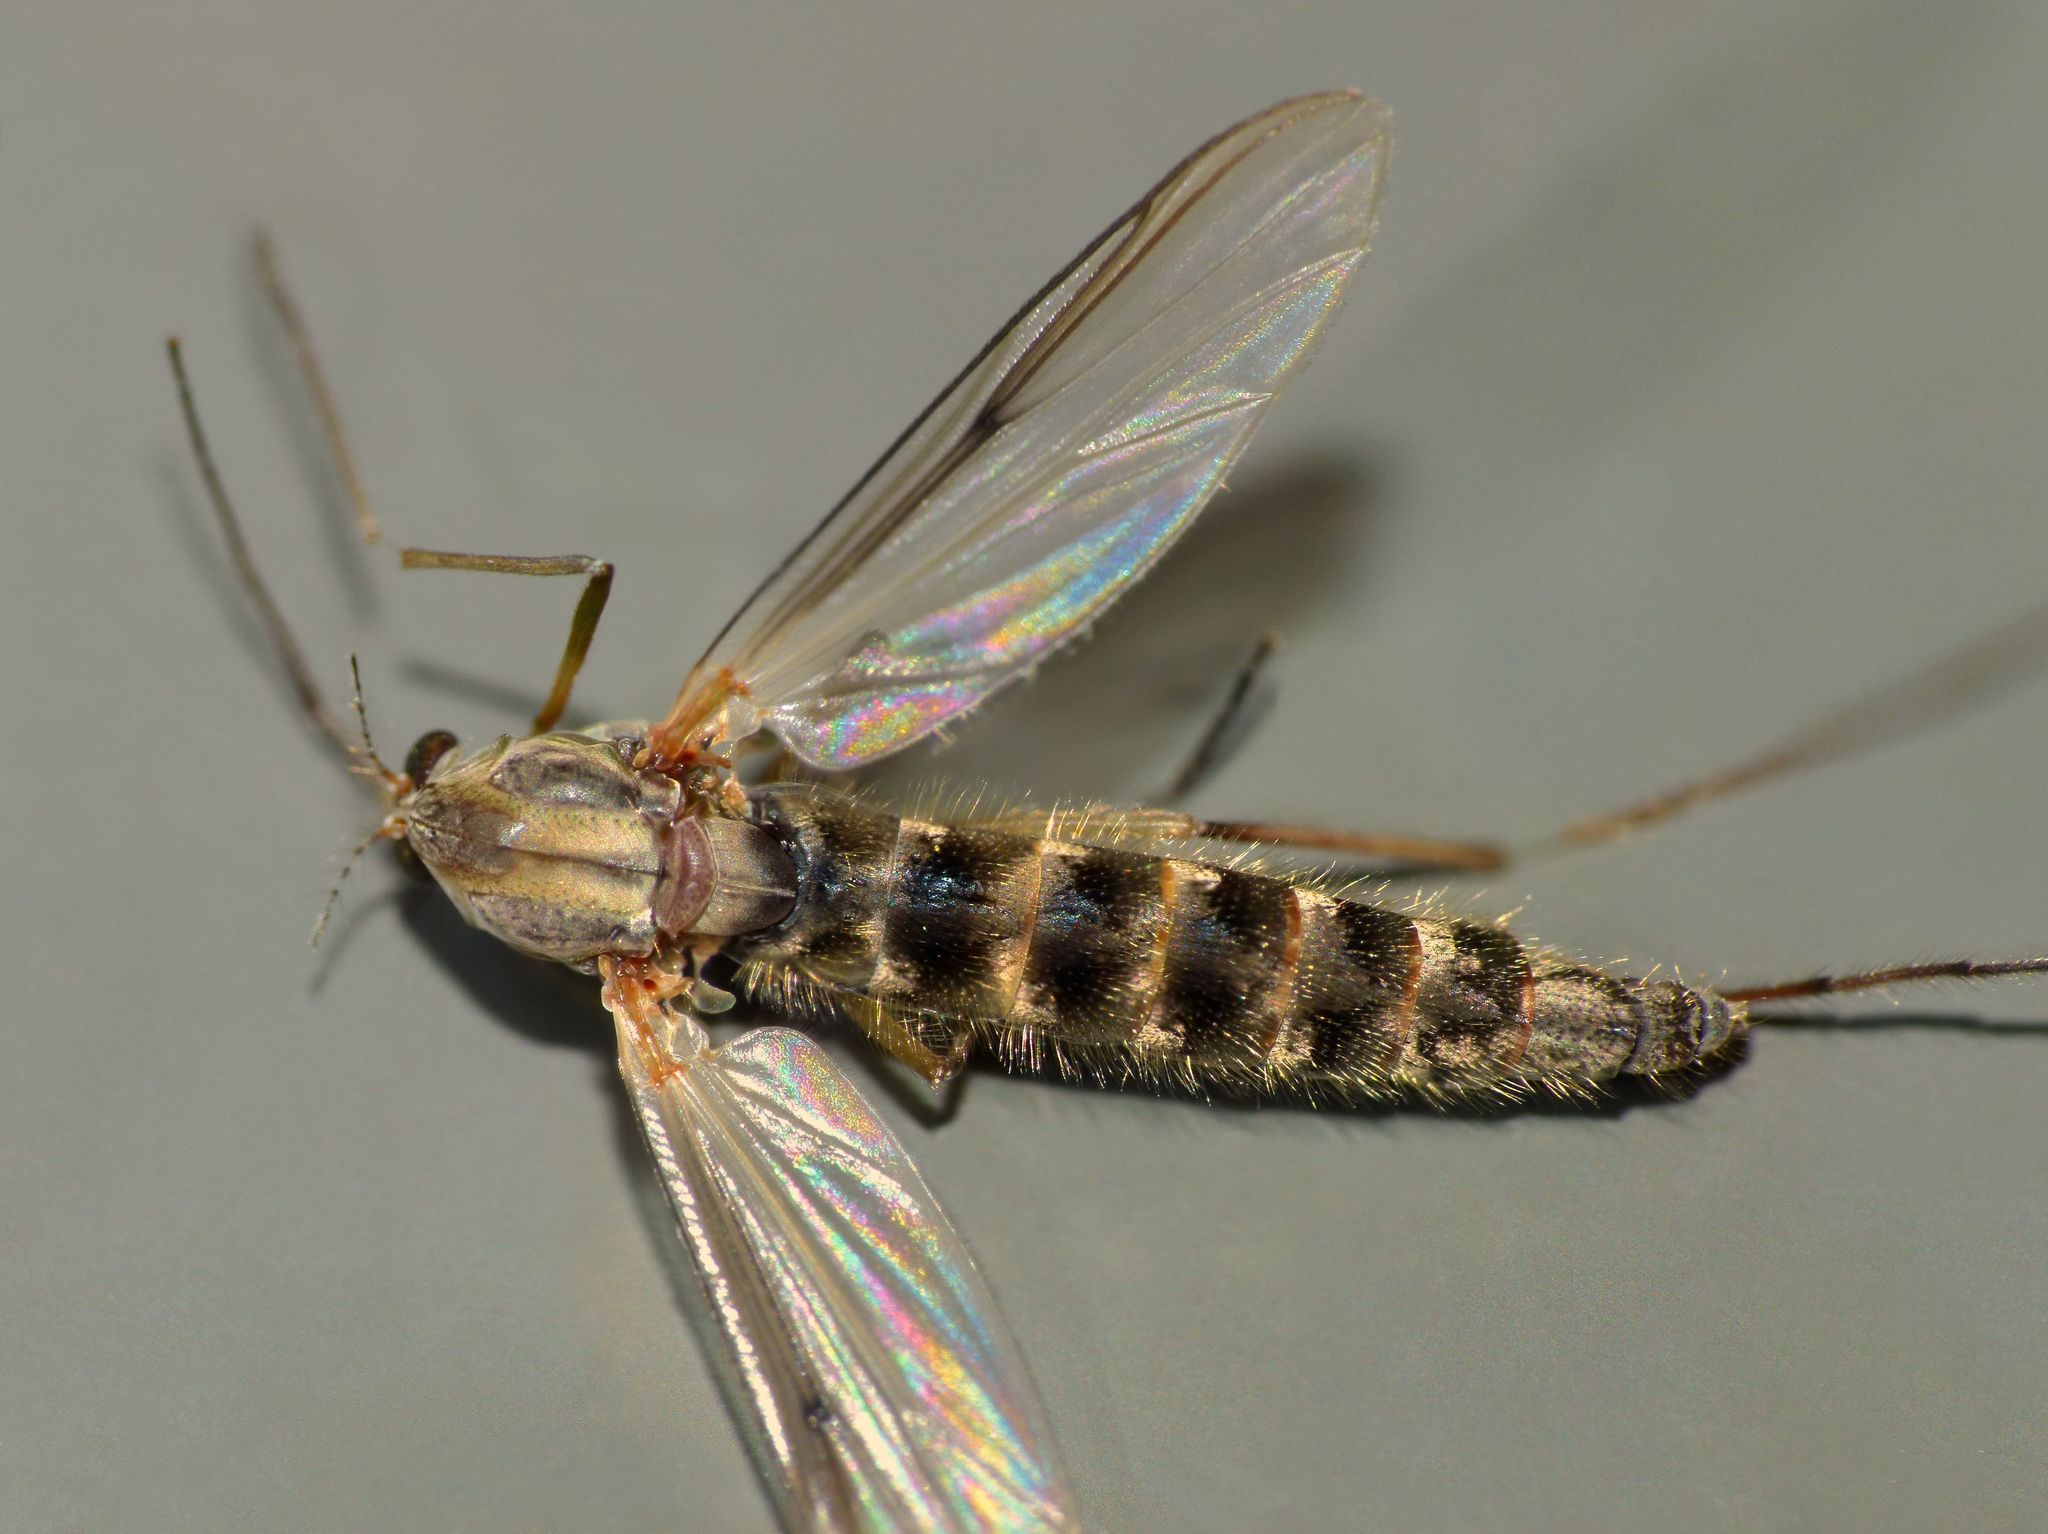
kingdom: Animalia
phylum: Arthropoda
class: Insecta
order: Diptera
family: Chironomidae
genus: Chironomus
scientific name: Chironomus zealandicus
